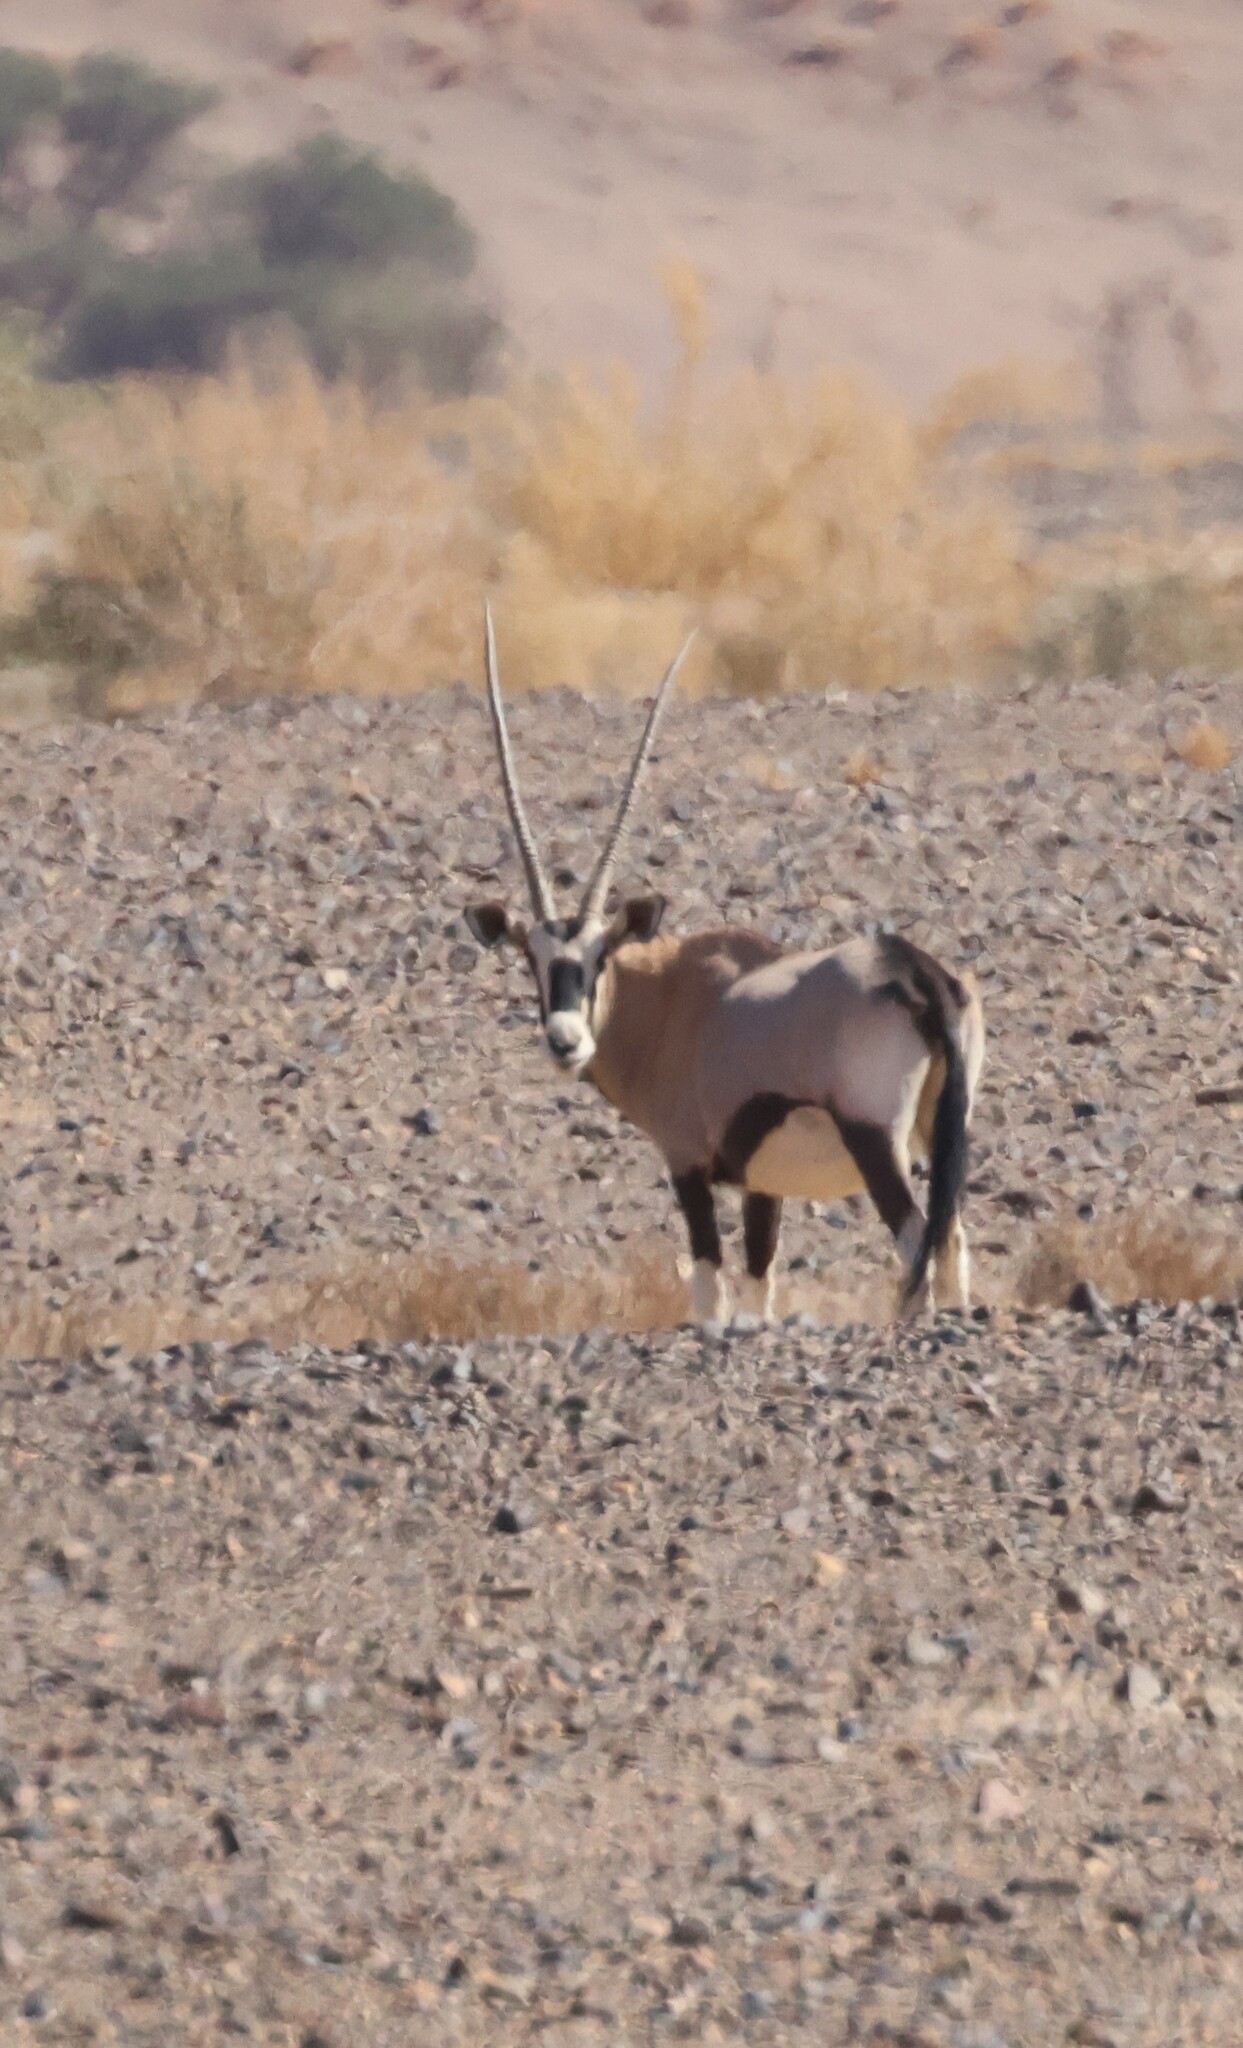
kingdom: Animalia
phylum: Chordata
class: Mammalia
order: Artiodactyla
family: Bovidae
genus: Oryx
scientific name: Oryx gazella
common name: Gemsbok
